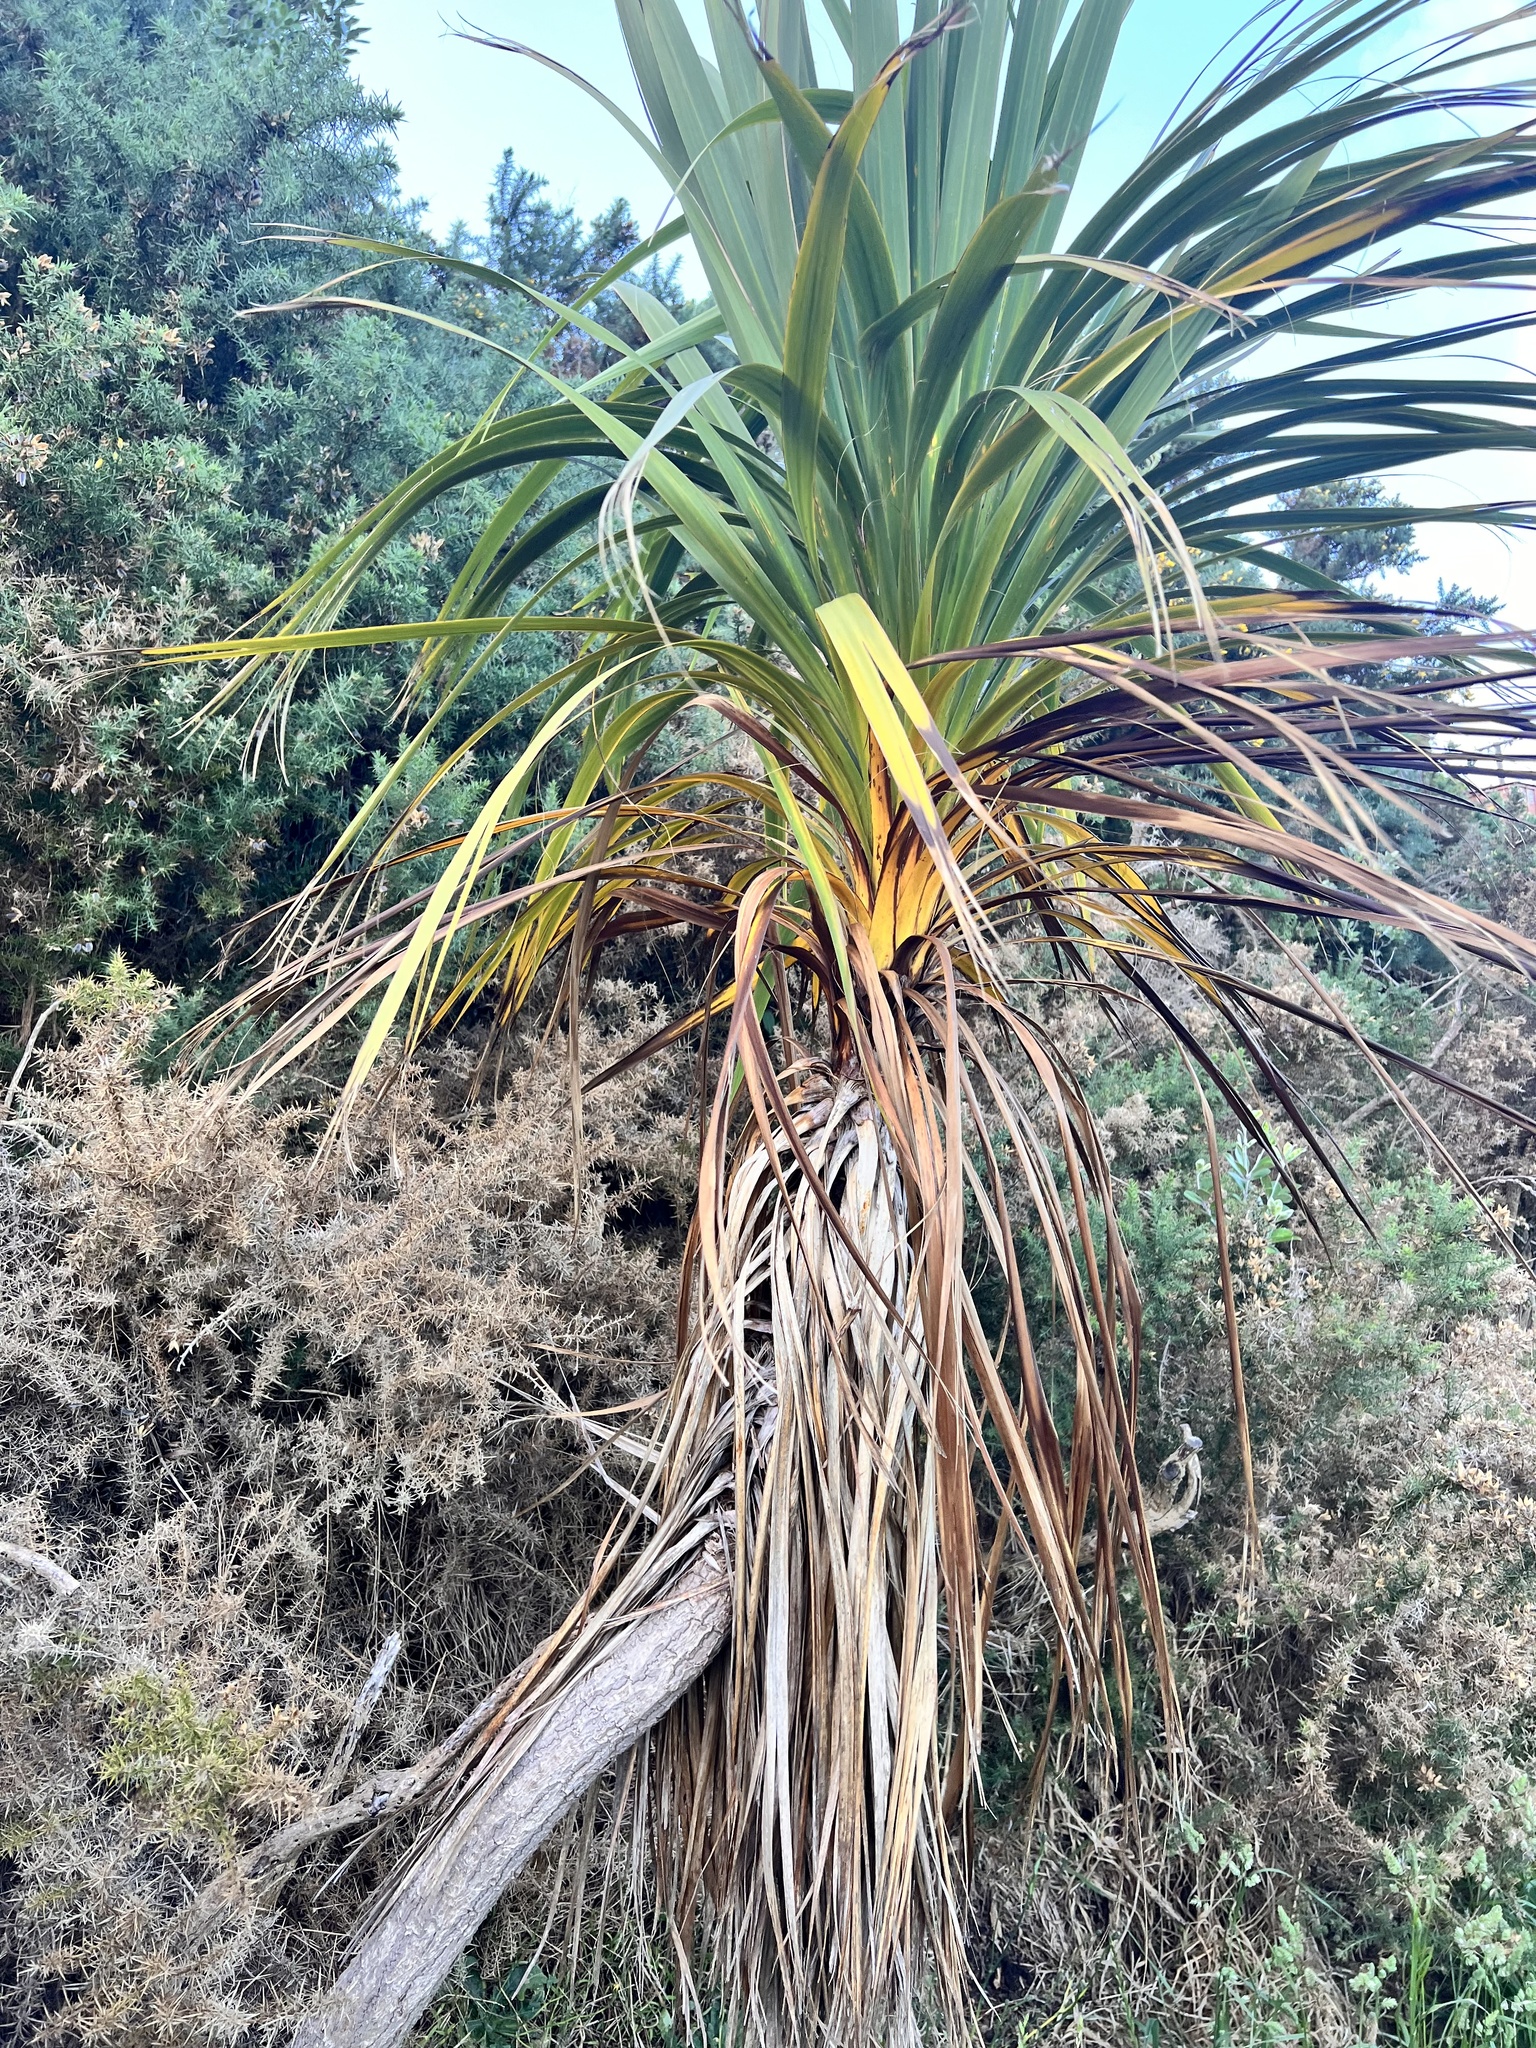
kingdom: Plantae
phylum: Tracheophyta
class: Liliopsida
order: Asparagales
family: Asparagaceae
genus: Cordyline
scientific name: Cordyline australis
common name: Cabbage-palm
